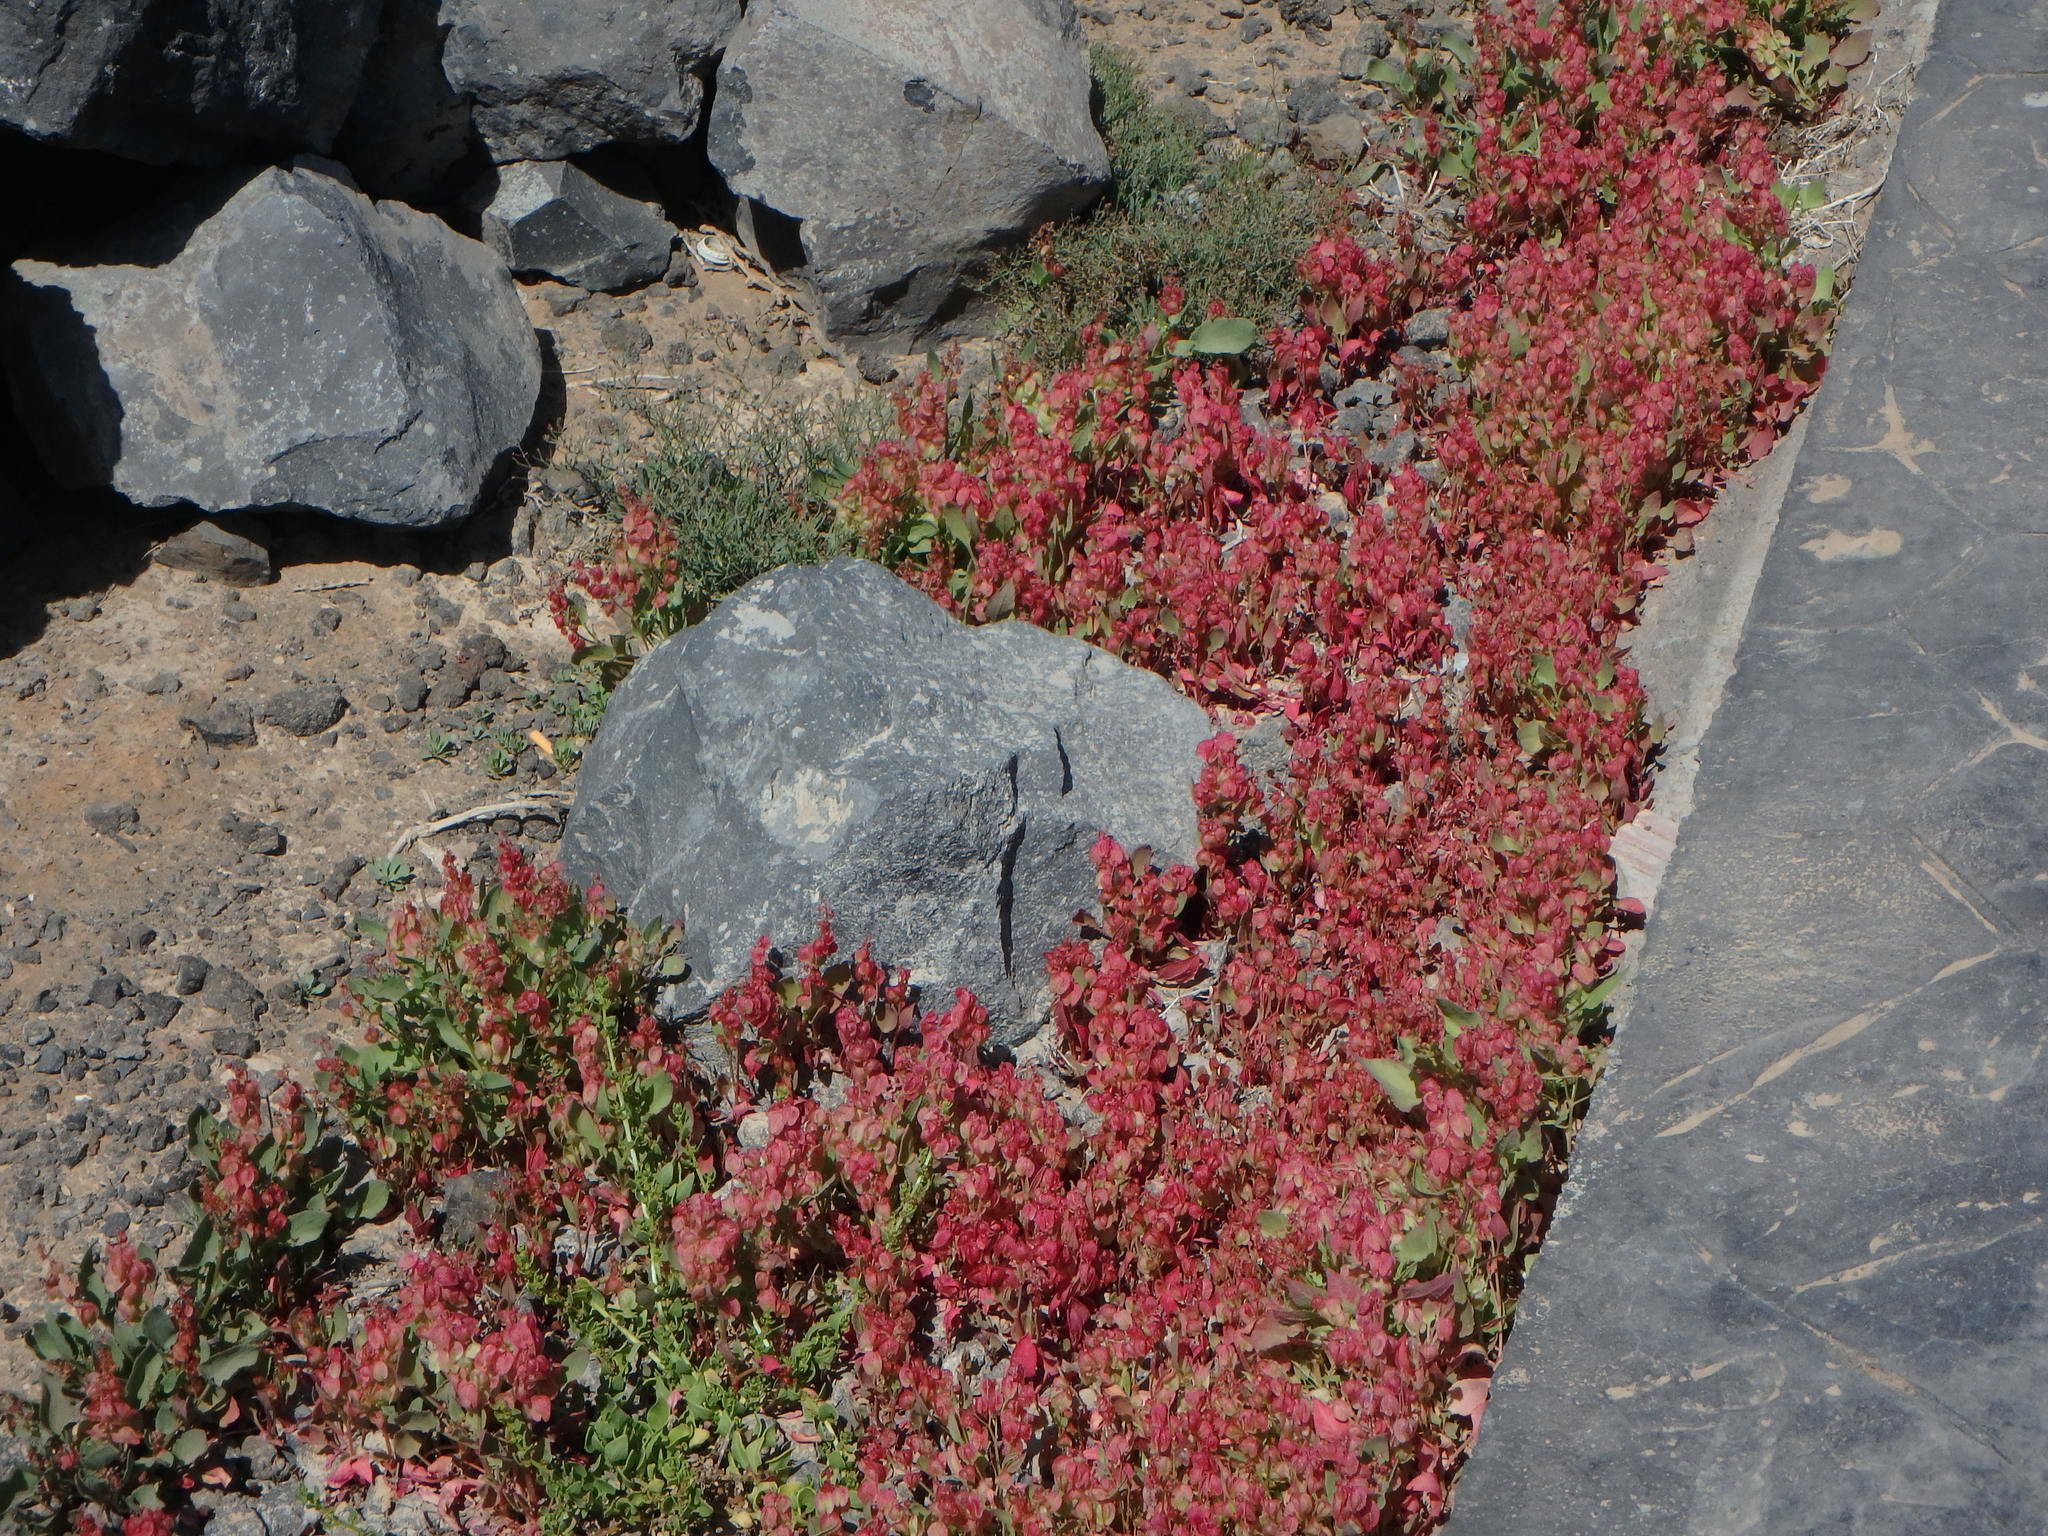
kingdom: Plantae
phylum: Tracheophyta
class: Magnoliopsida
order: Caryophyllales
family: Polygonaceae
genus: Rumex
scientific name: Rumex vesicarius
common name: Bladder dock
